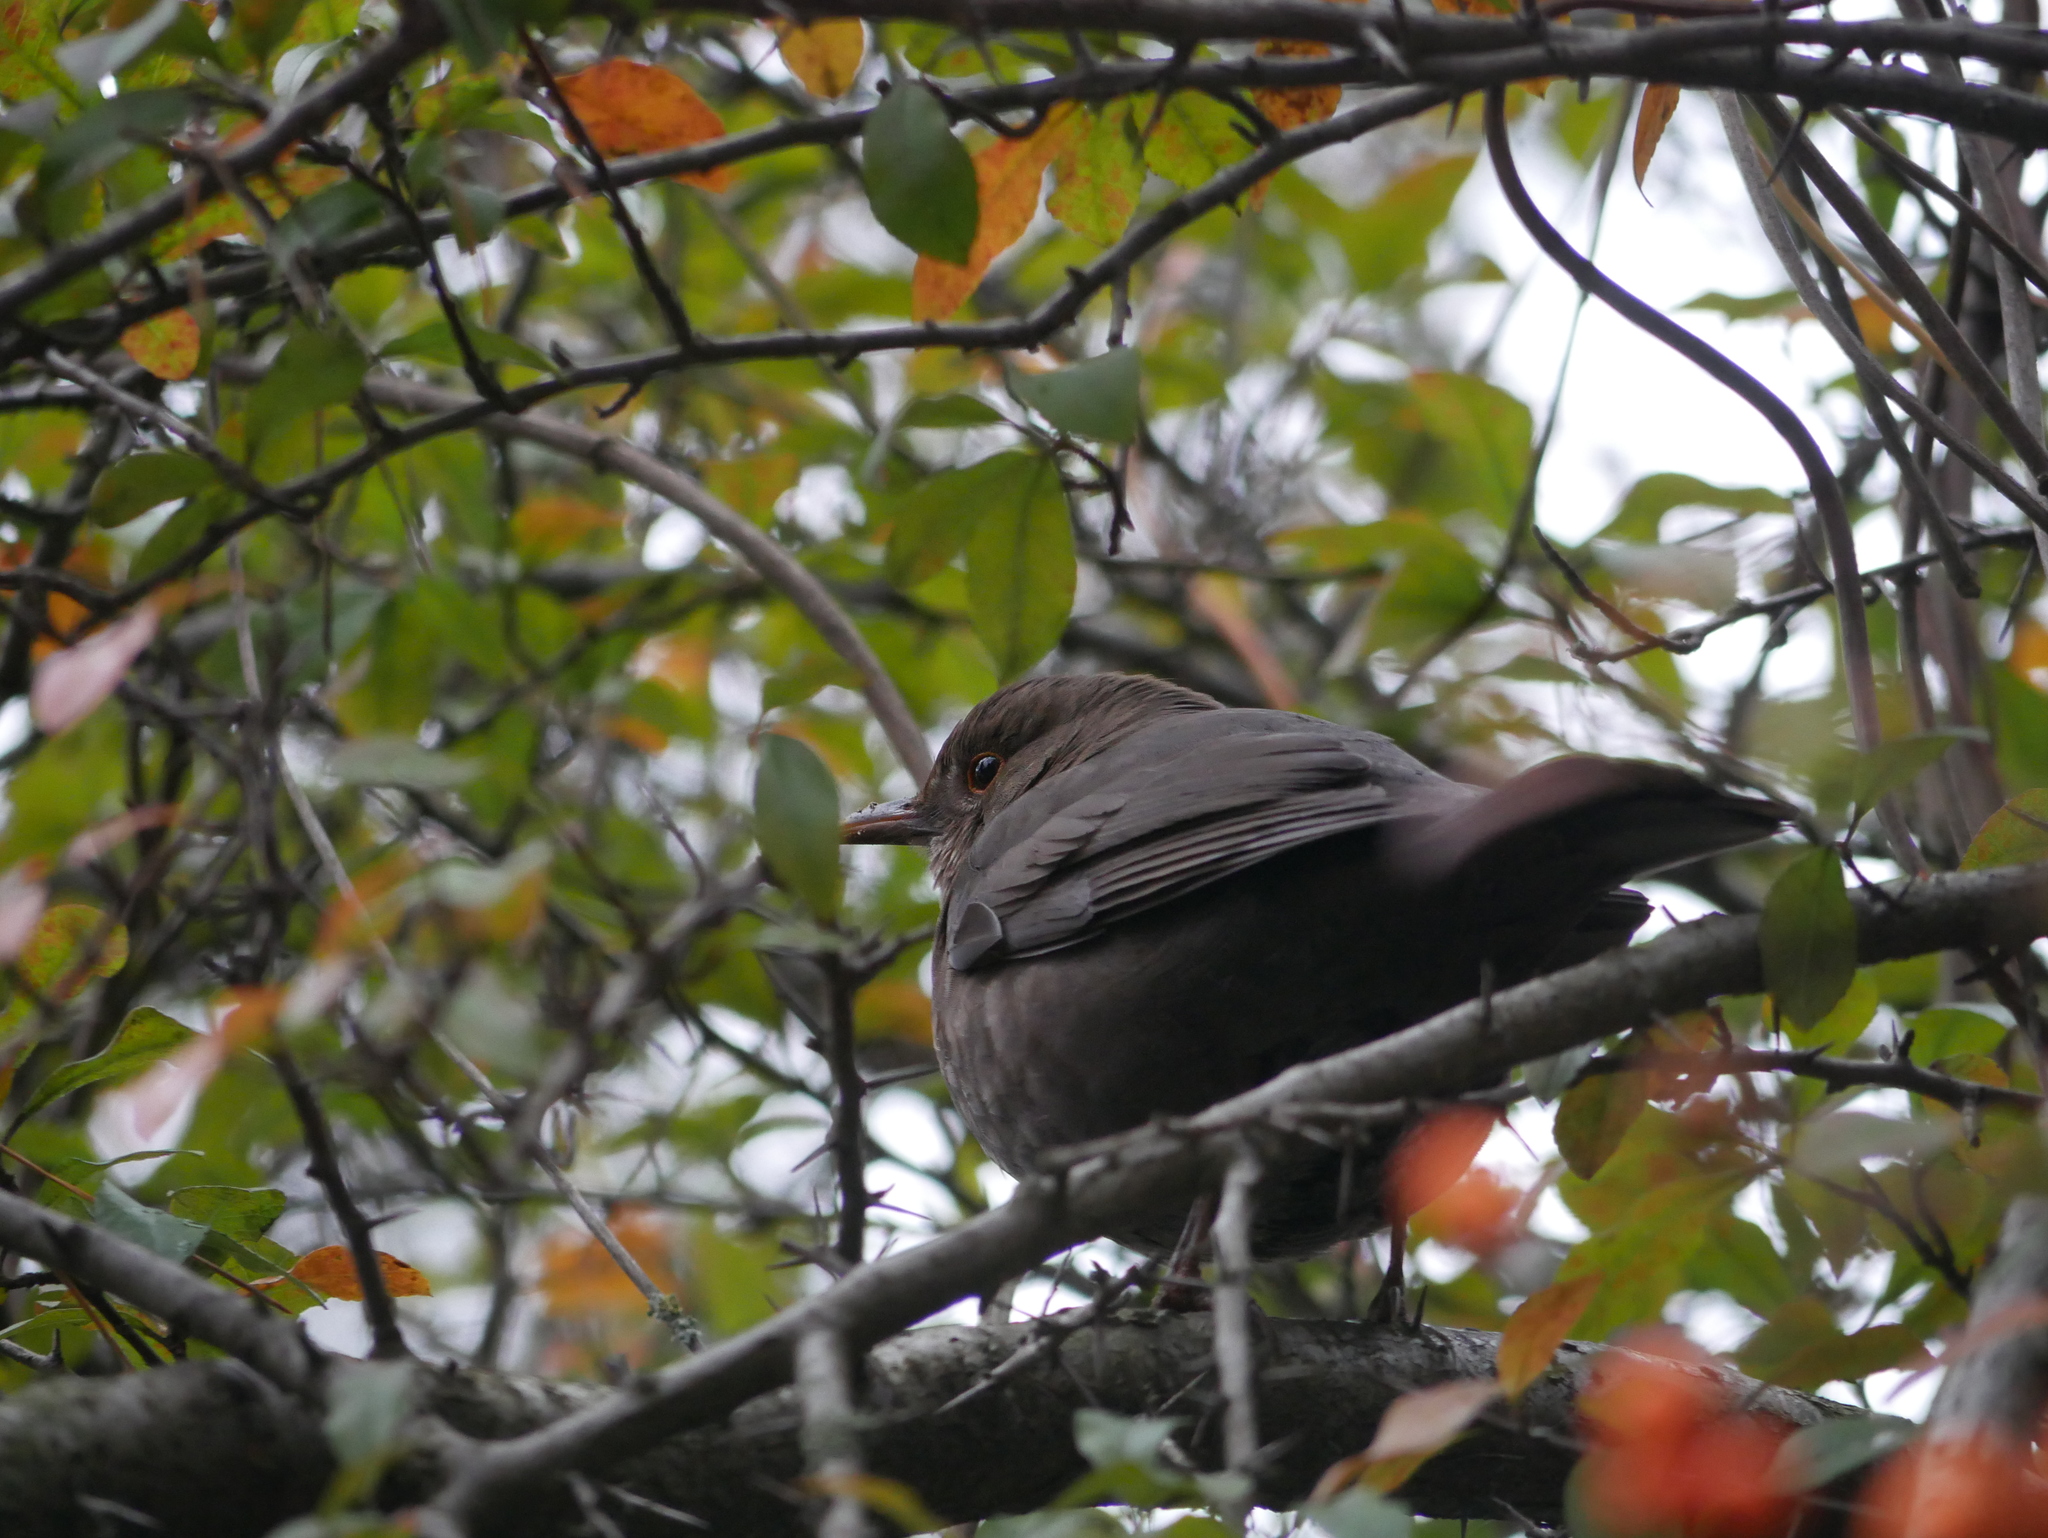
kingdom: Animalia
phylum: Chordata
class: Aves
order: Passeriformes
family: Turdidae
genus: Turdus
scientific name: Turdus merula
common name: Common blackbird
